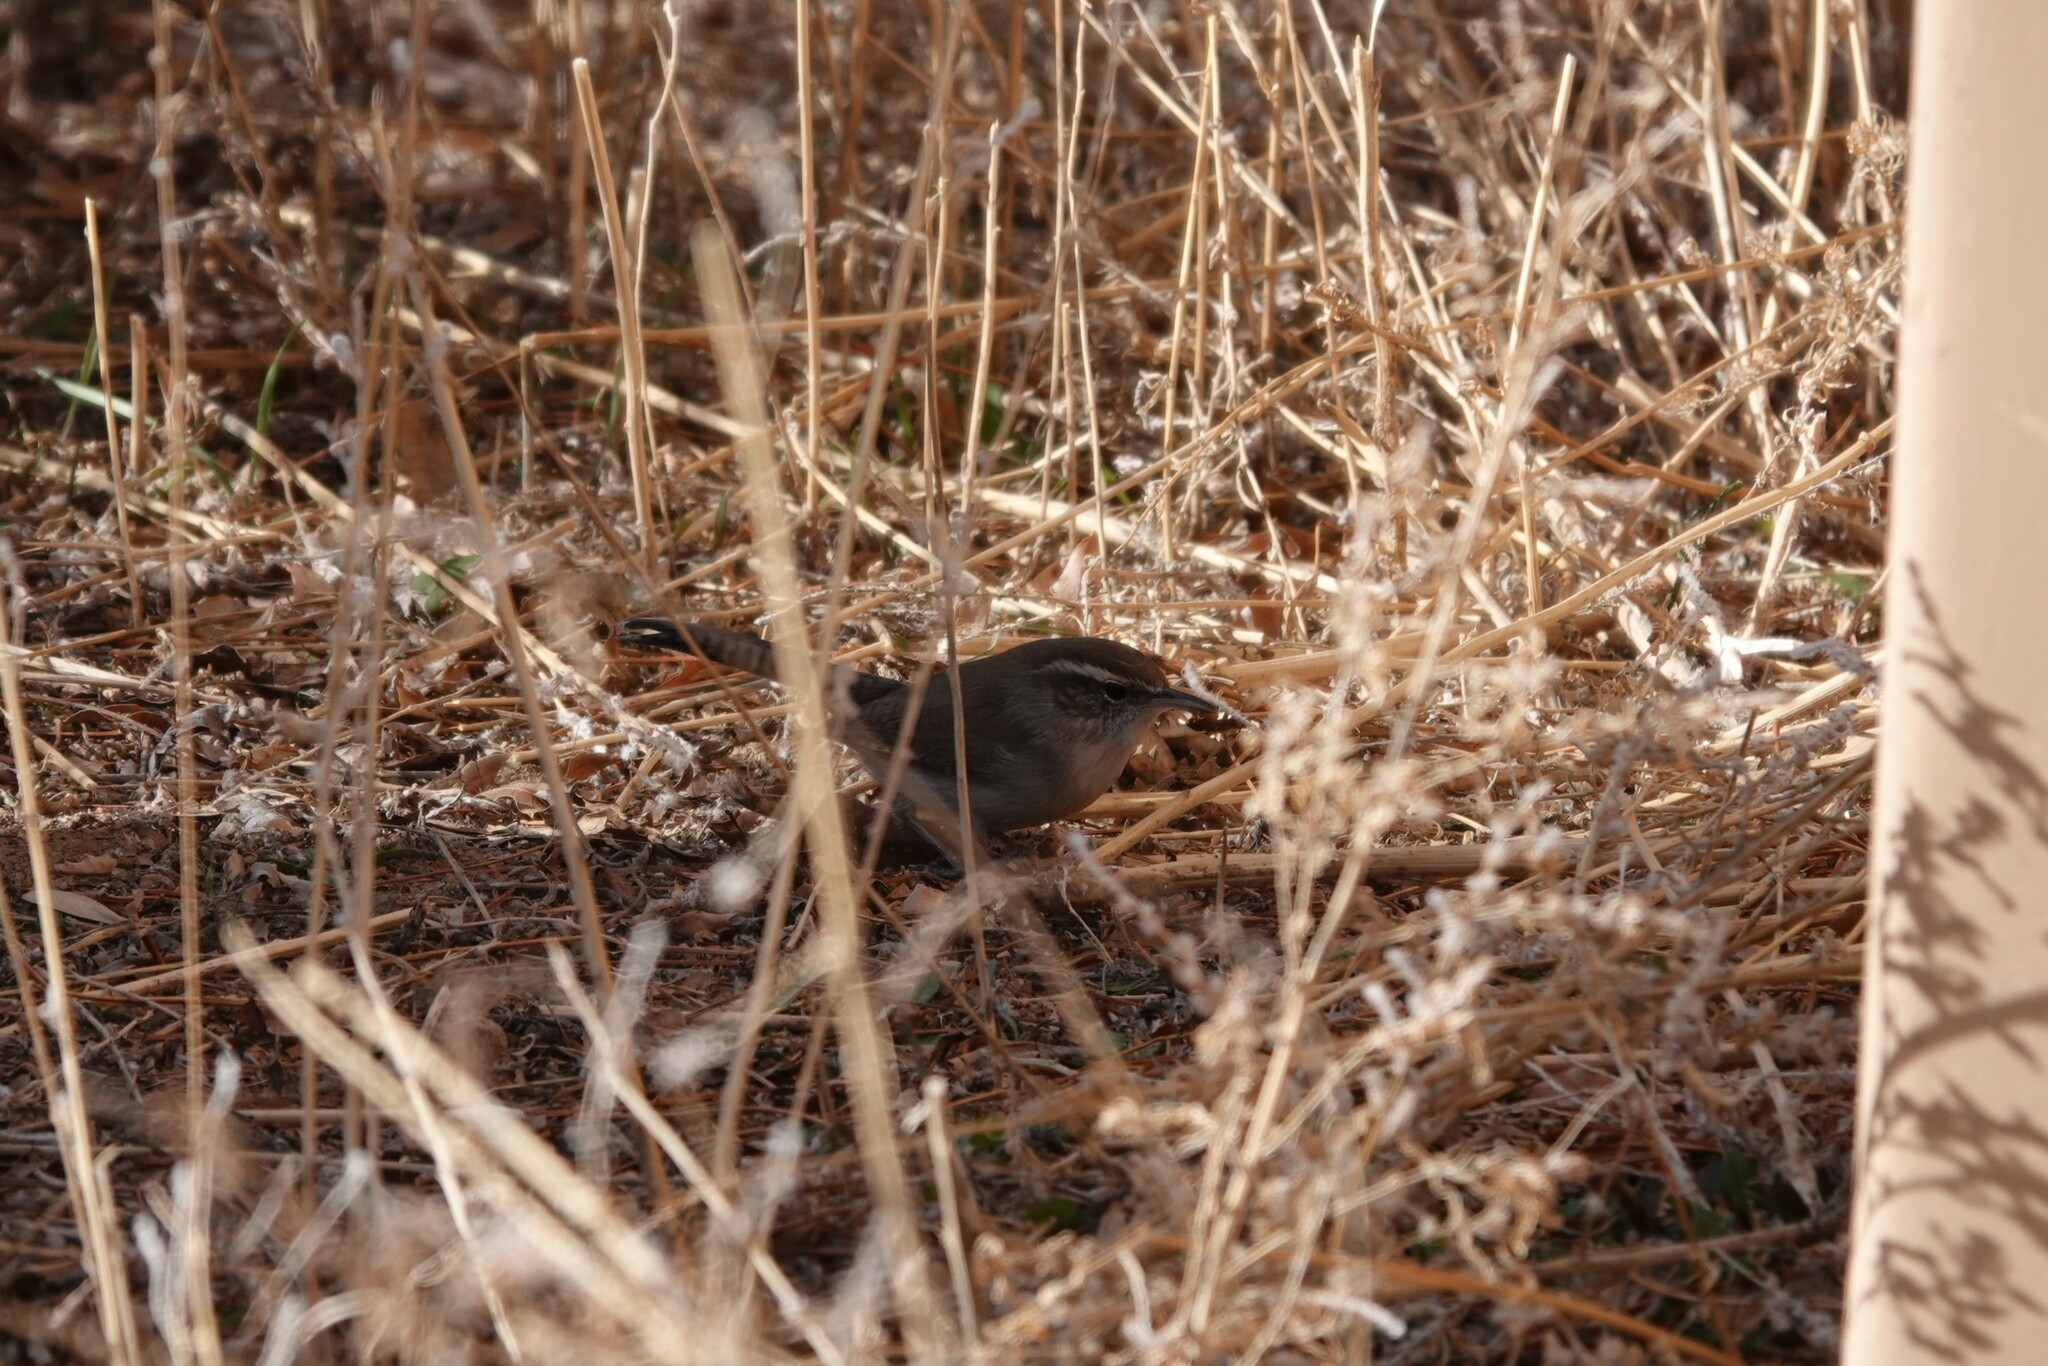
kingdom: Animalia
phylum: Chordata
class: Aves
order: Passeriformes
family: Troglodytidae
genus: Thryomanes
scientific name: Thryomanes bewickii
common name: Bewick's wren
